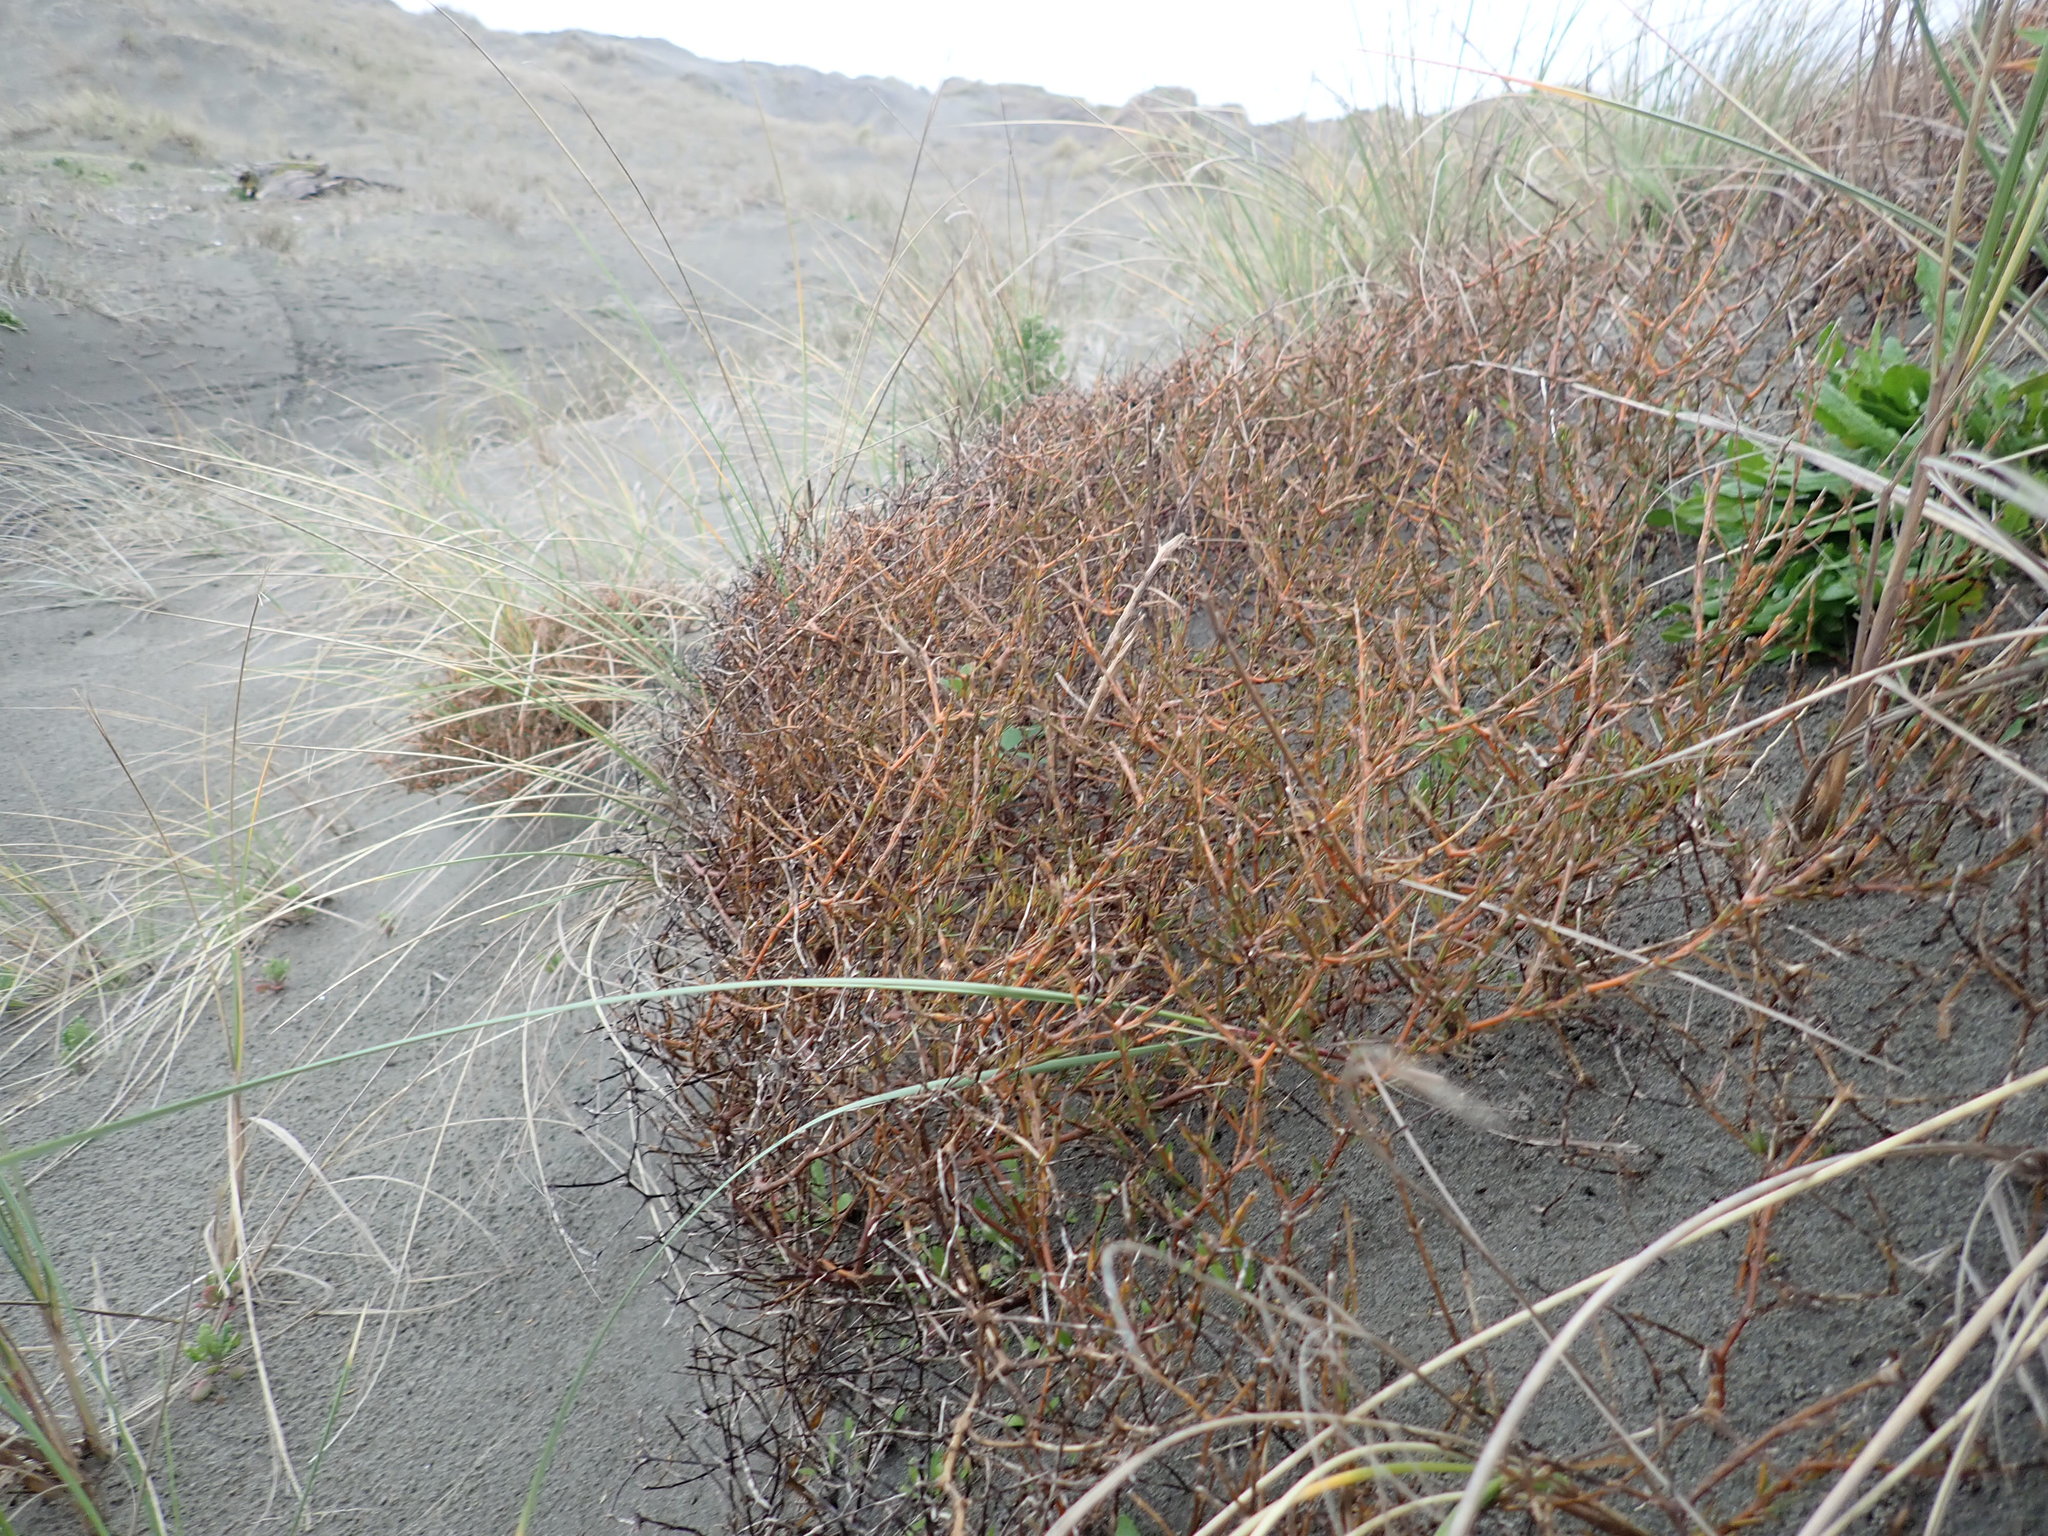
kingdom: Plantae
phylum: Tracheophyta
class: Magnoliopsida
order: Gentianales
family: Rubiaceae
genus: Coprosma
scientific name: Coprosma acerosa
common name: Sand coprosma
